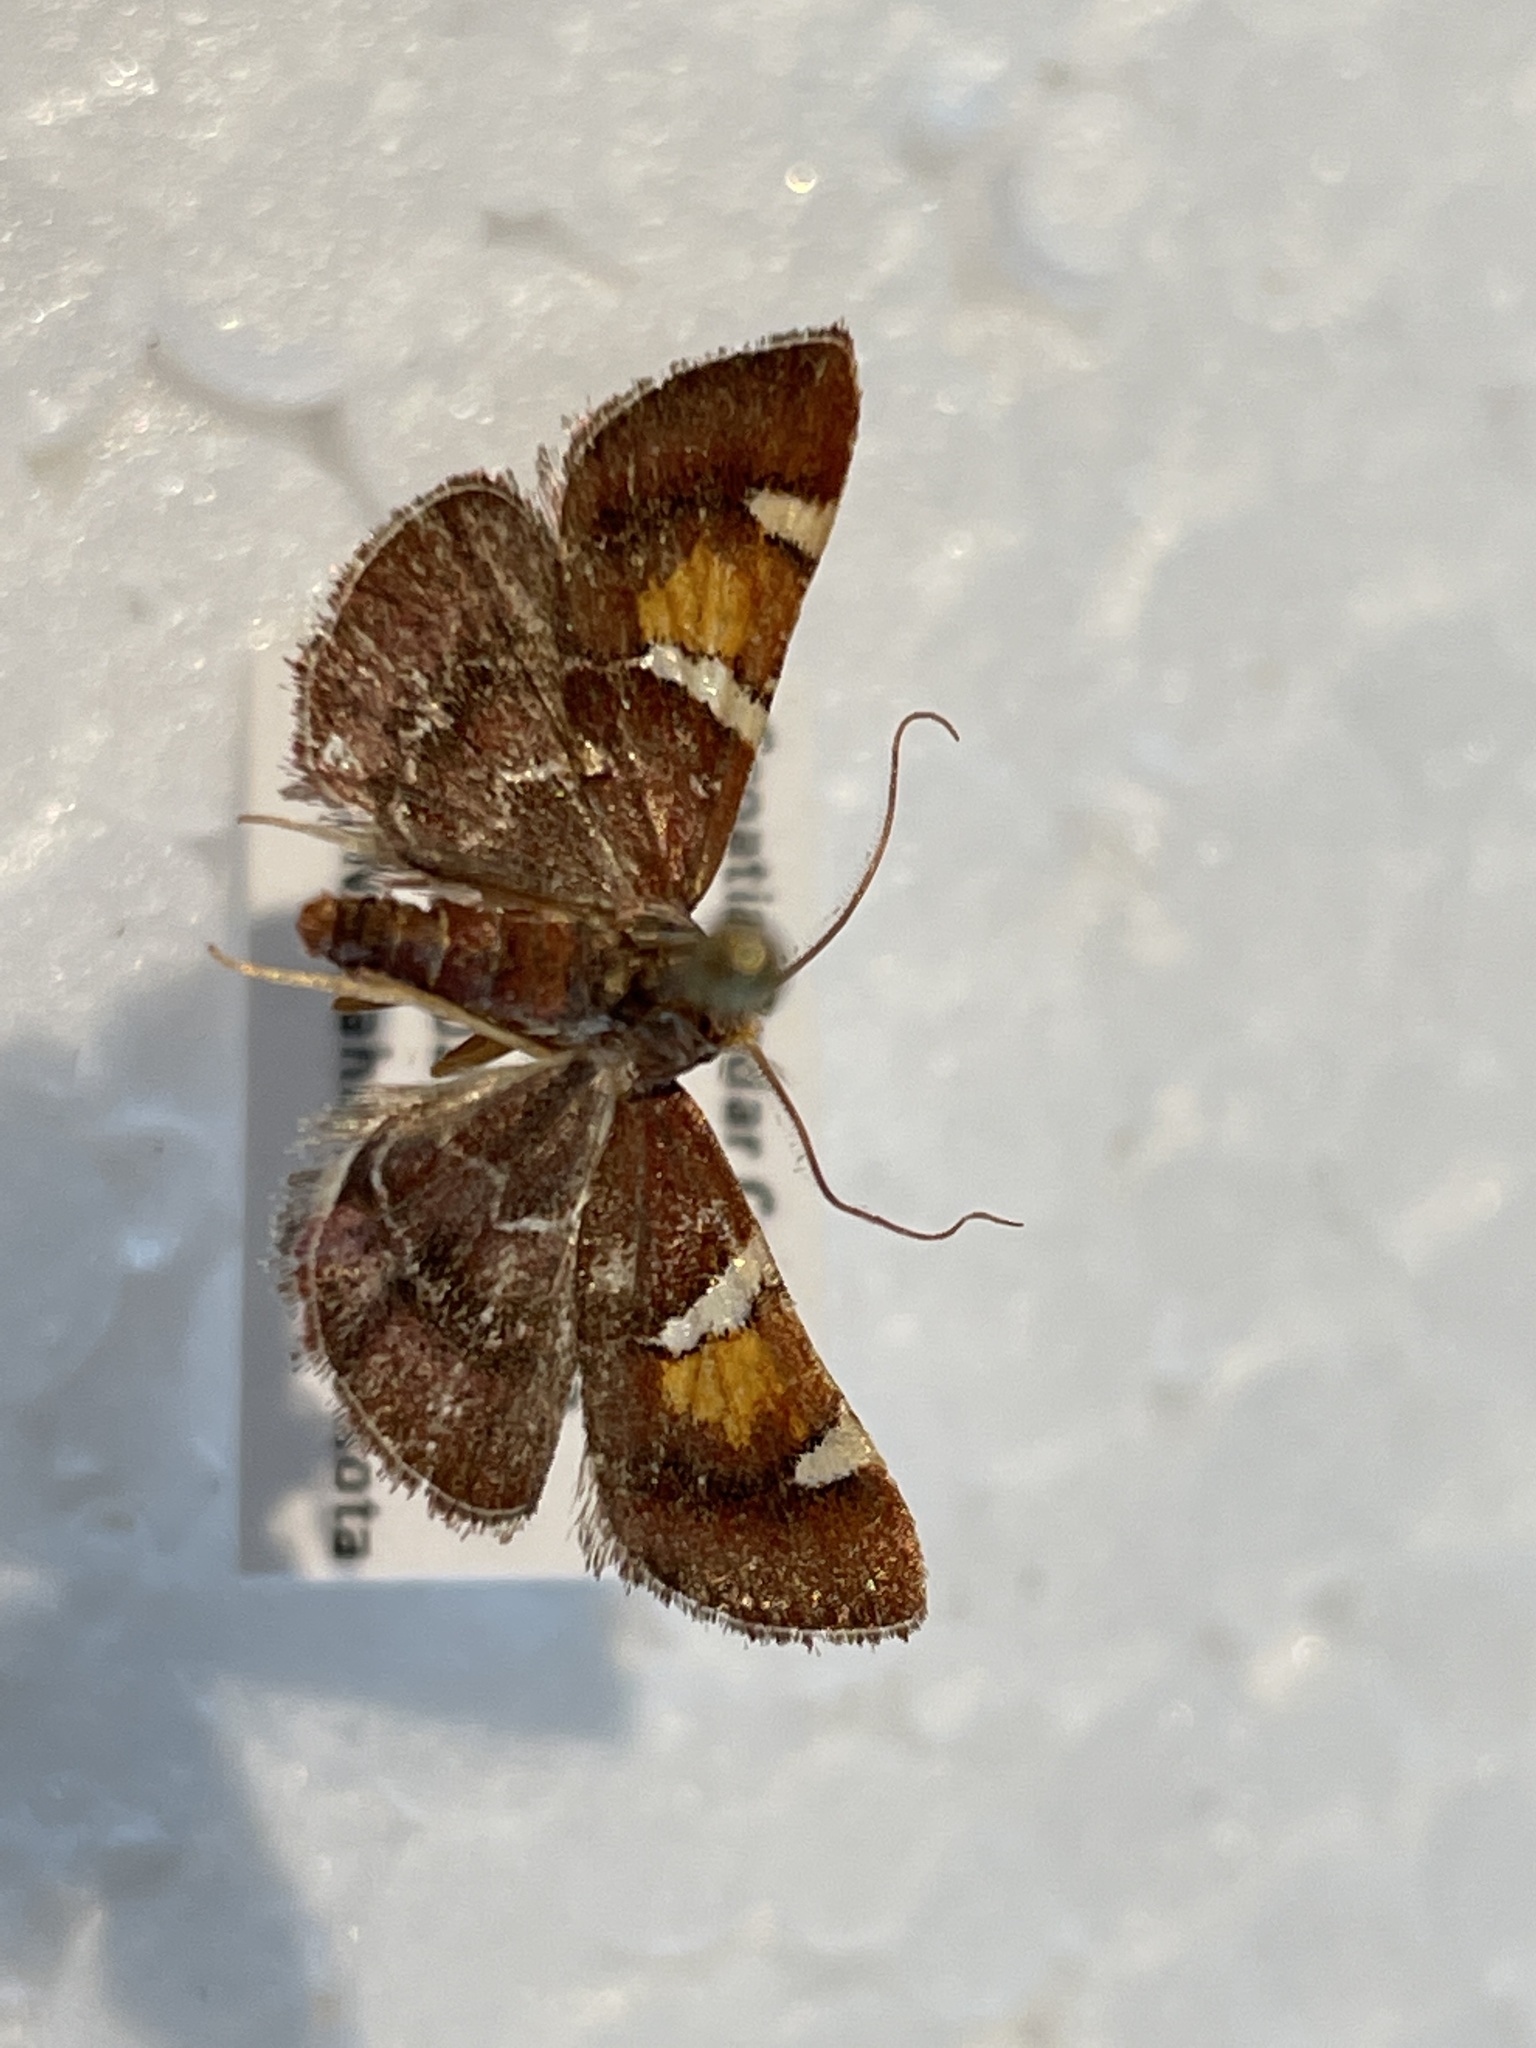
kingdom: Animalia
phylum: Arthropoda
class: Insecta
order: Lepidoptera
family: Pyralidae
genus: Pyralis
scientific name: Pyralis regalis
